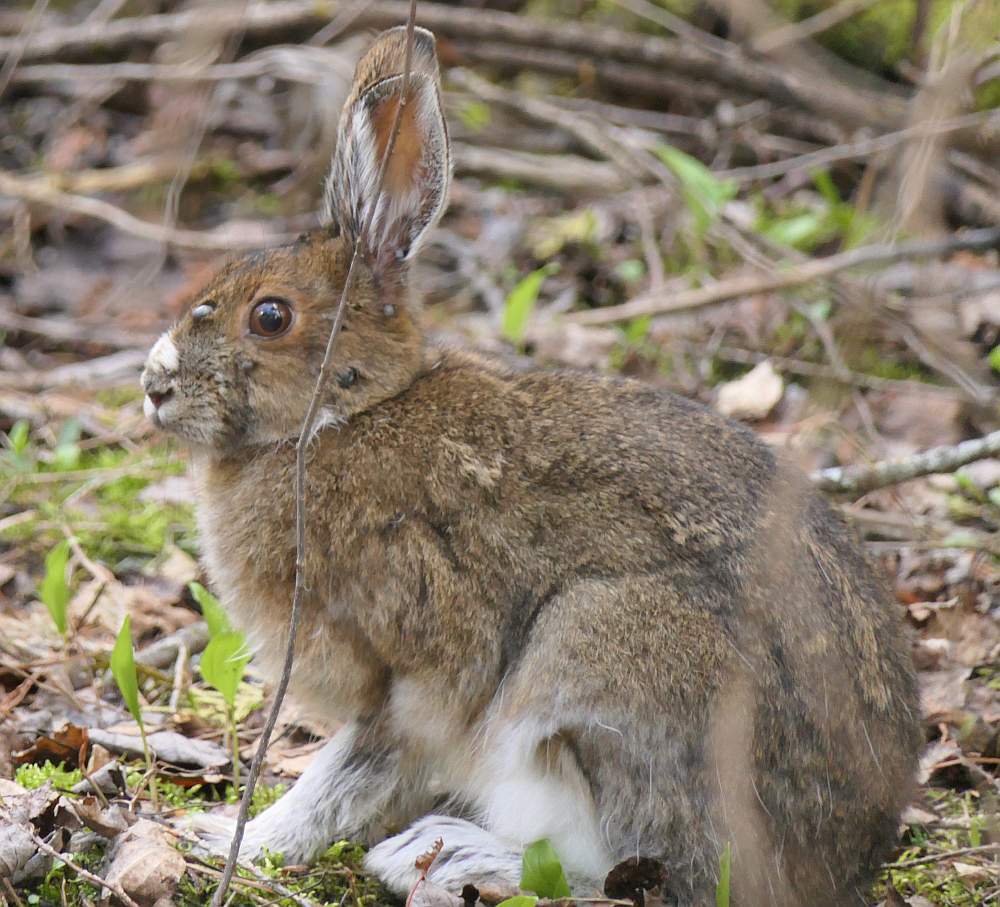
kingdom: Animalia
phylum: Chordata
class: Mammalia
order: Lagomorpha
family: Leporidae
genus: Lepus
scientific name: Lepus americanus
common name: Snowshoe hare
